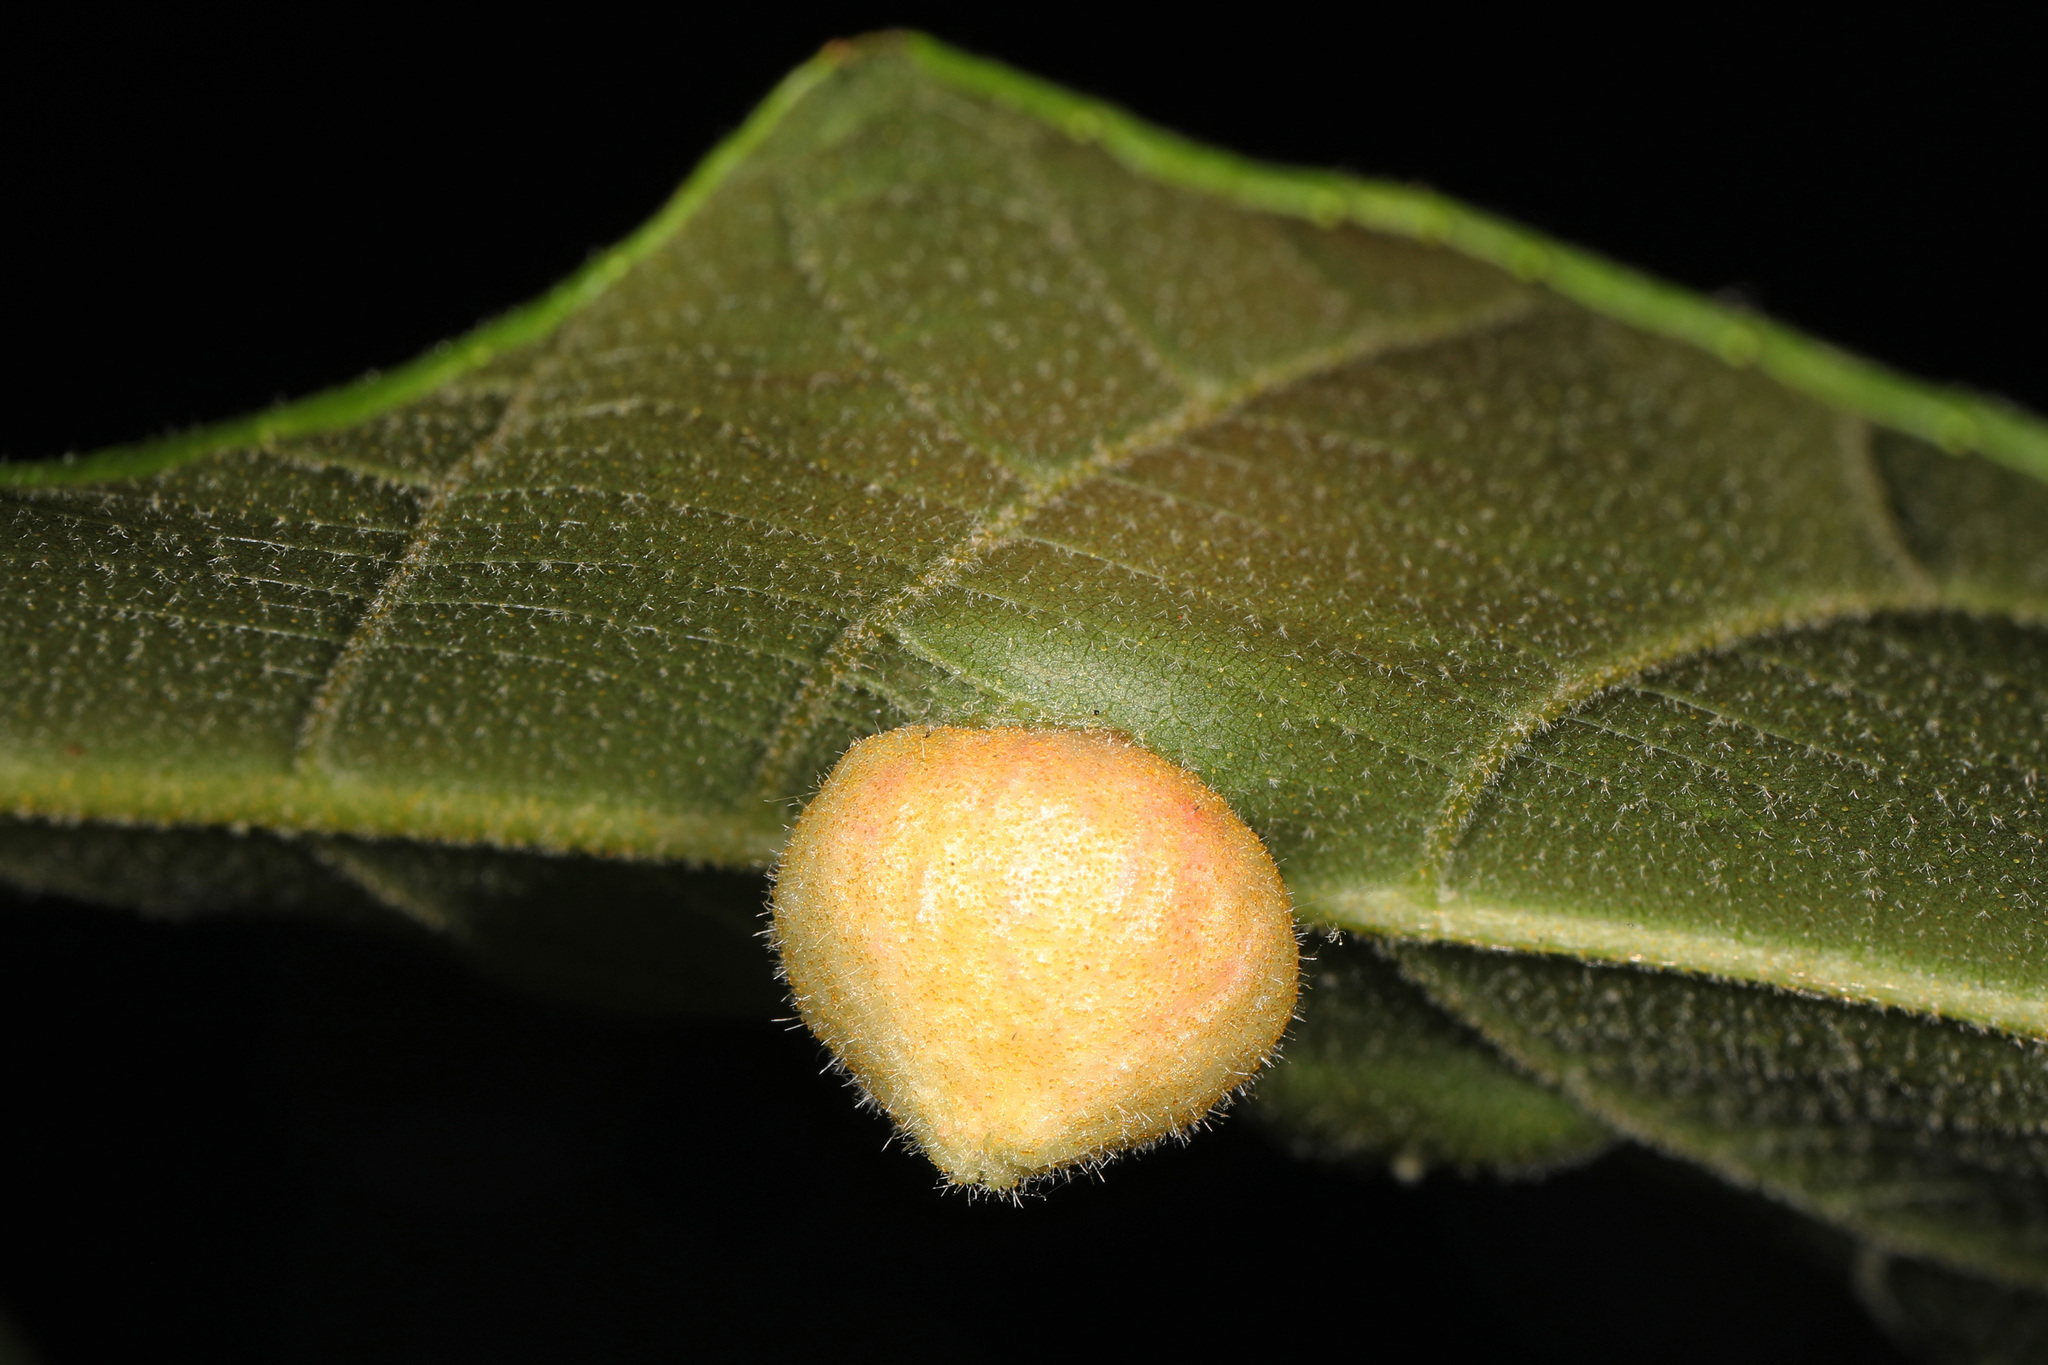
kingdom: Animalia
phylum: Arthropoda
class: Insecta
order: Hemiptera
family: Phylloxeridae
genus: Phylloxera
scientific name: Phylloxera caryae-avellana
